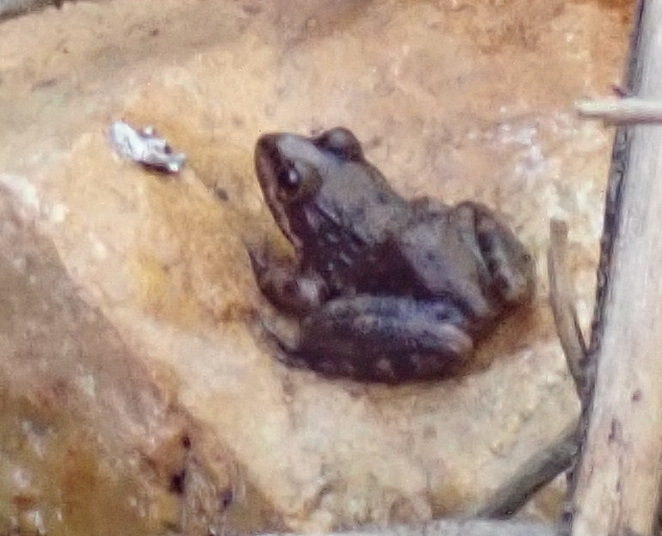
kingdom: Animalia
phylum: Chordata
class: Amphibia
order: Anura
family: Pyxicephalidae
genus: Amietia
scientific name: Amietia fuscigula
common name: Cape rana
